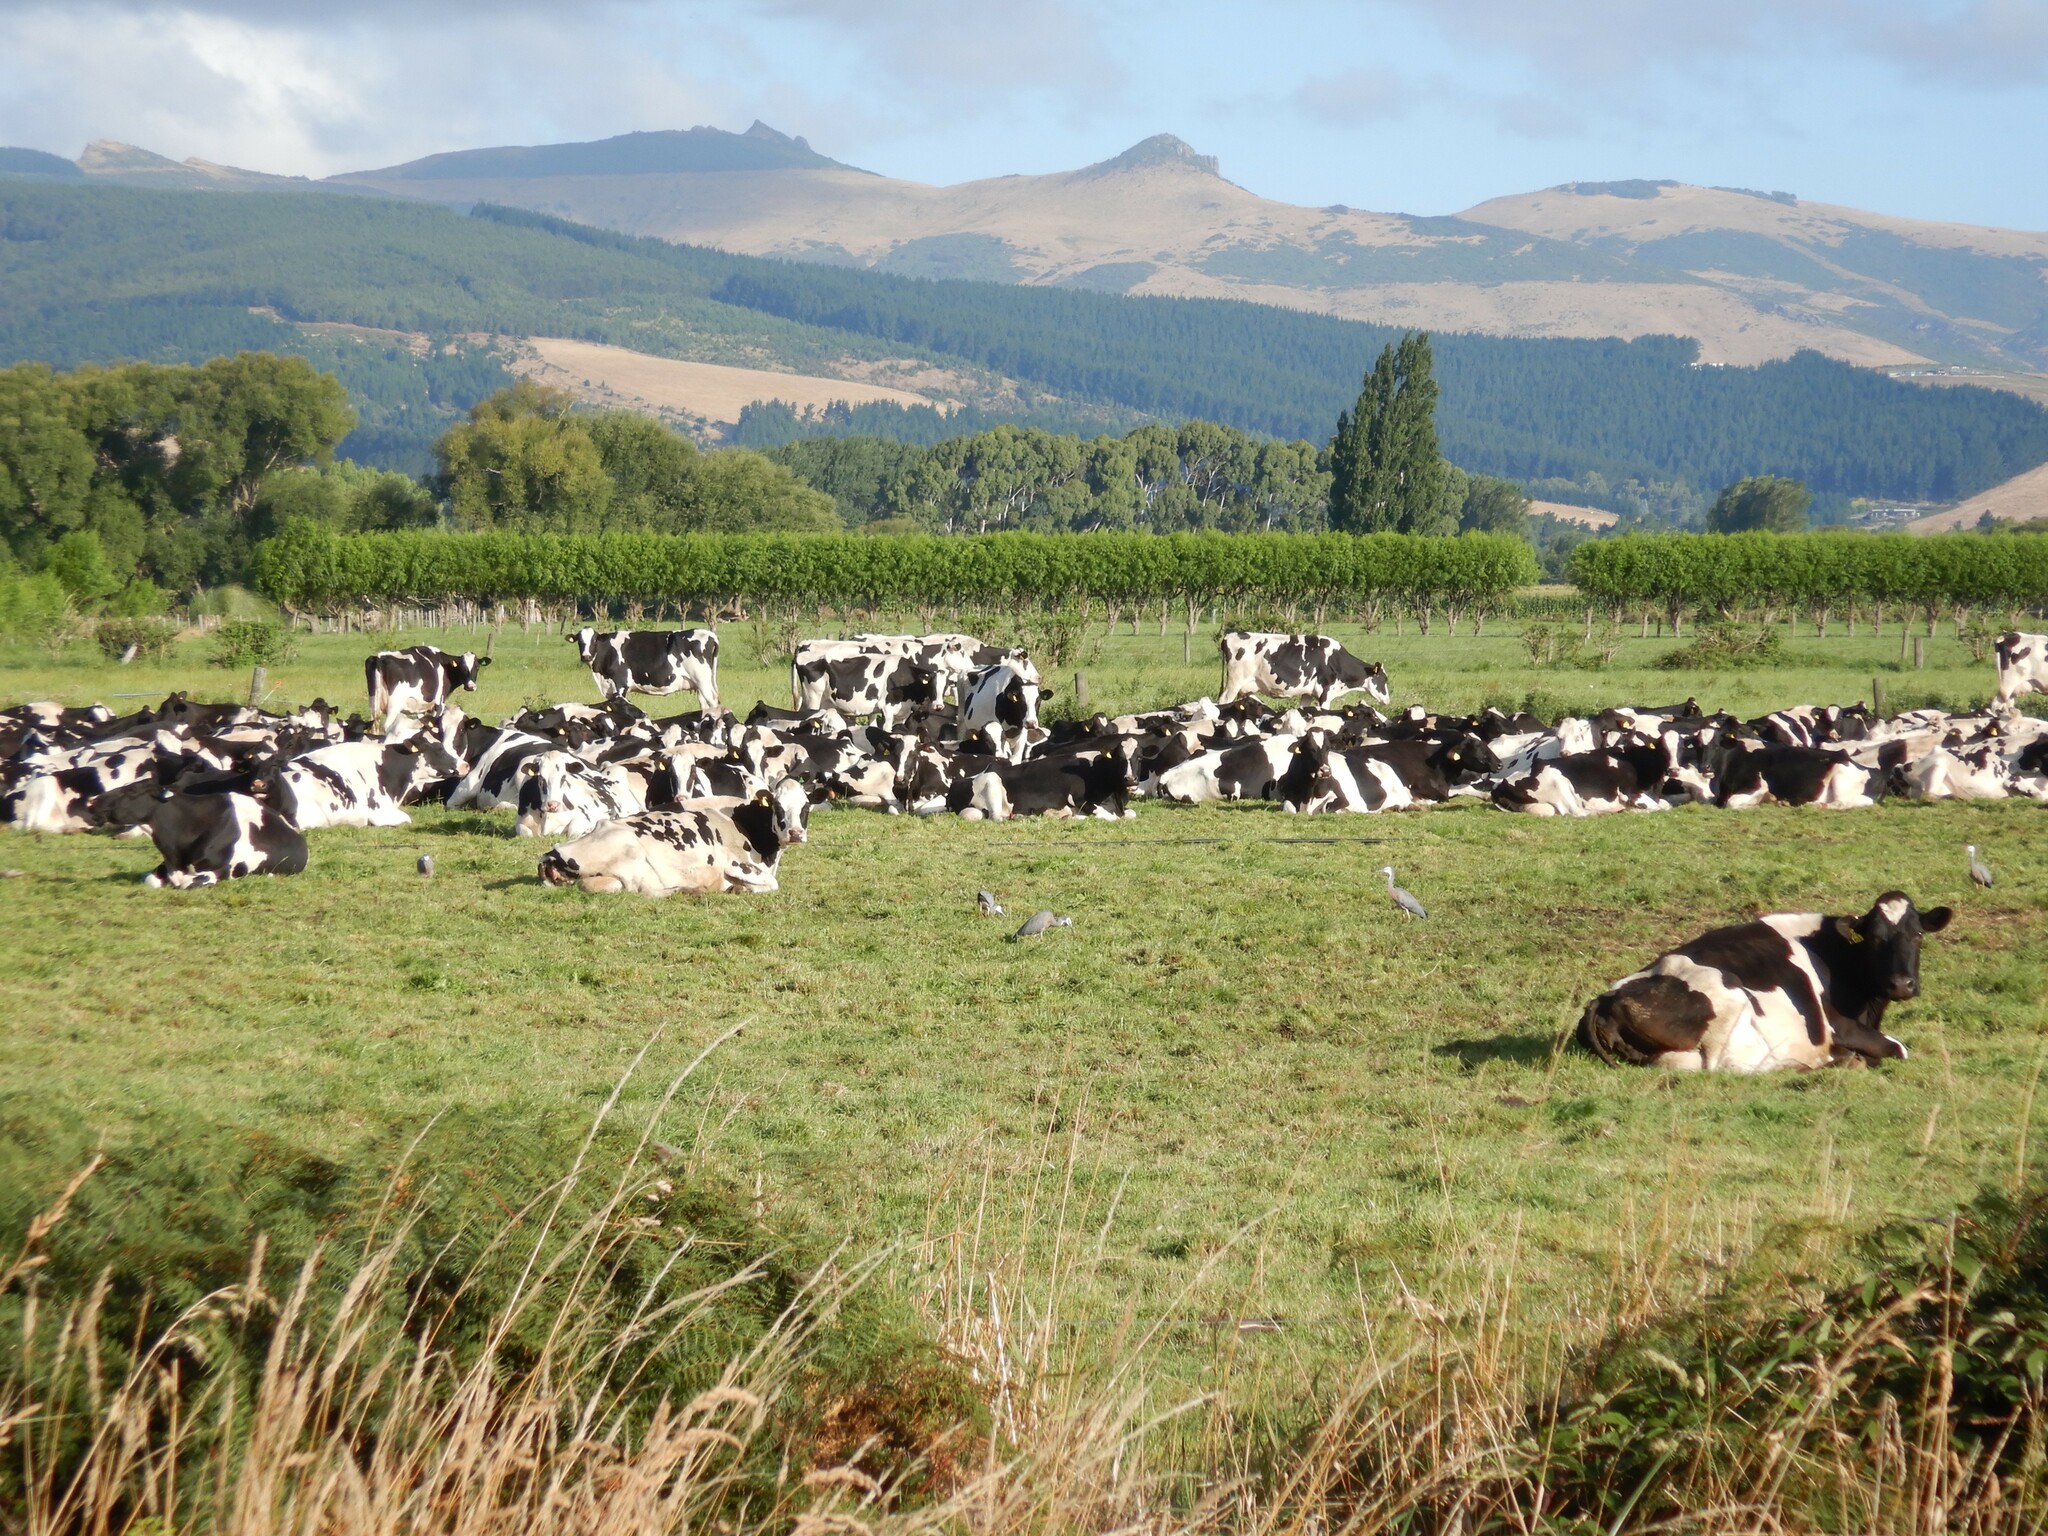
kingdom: Animalia
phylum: Chordata
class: Aves
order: Pelecaniformes
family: Ardeidae
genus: Egretta
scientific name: Egretta novaehollandiae
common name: White-faced heron
